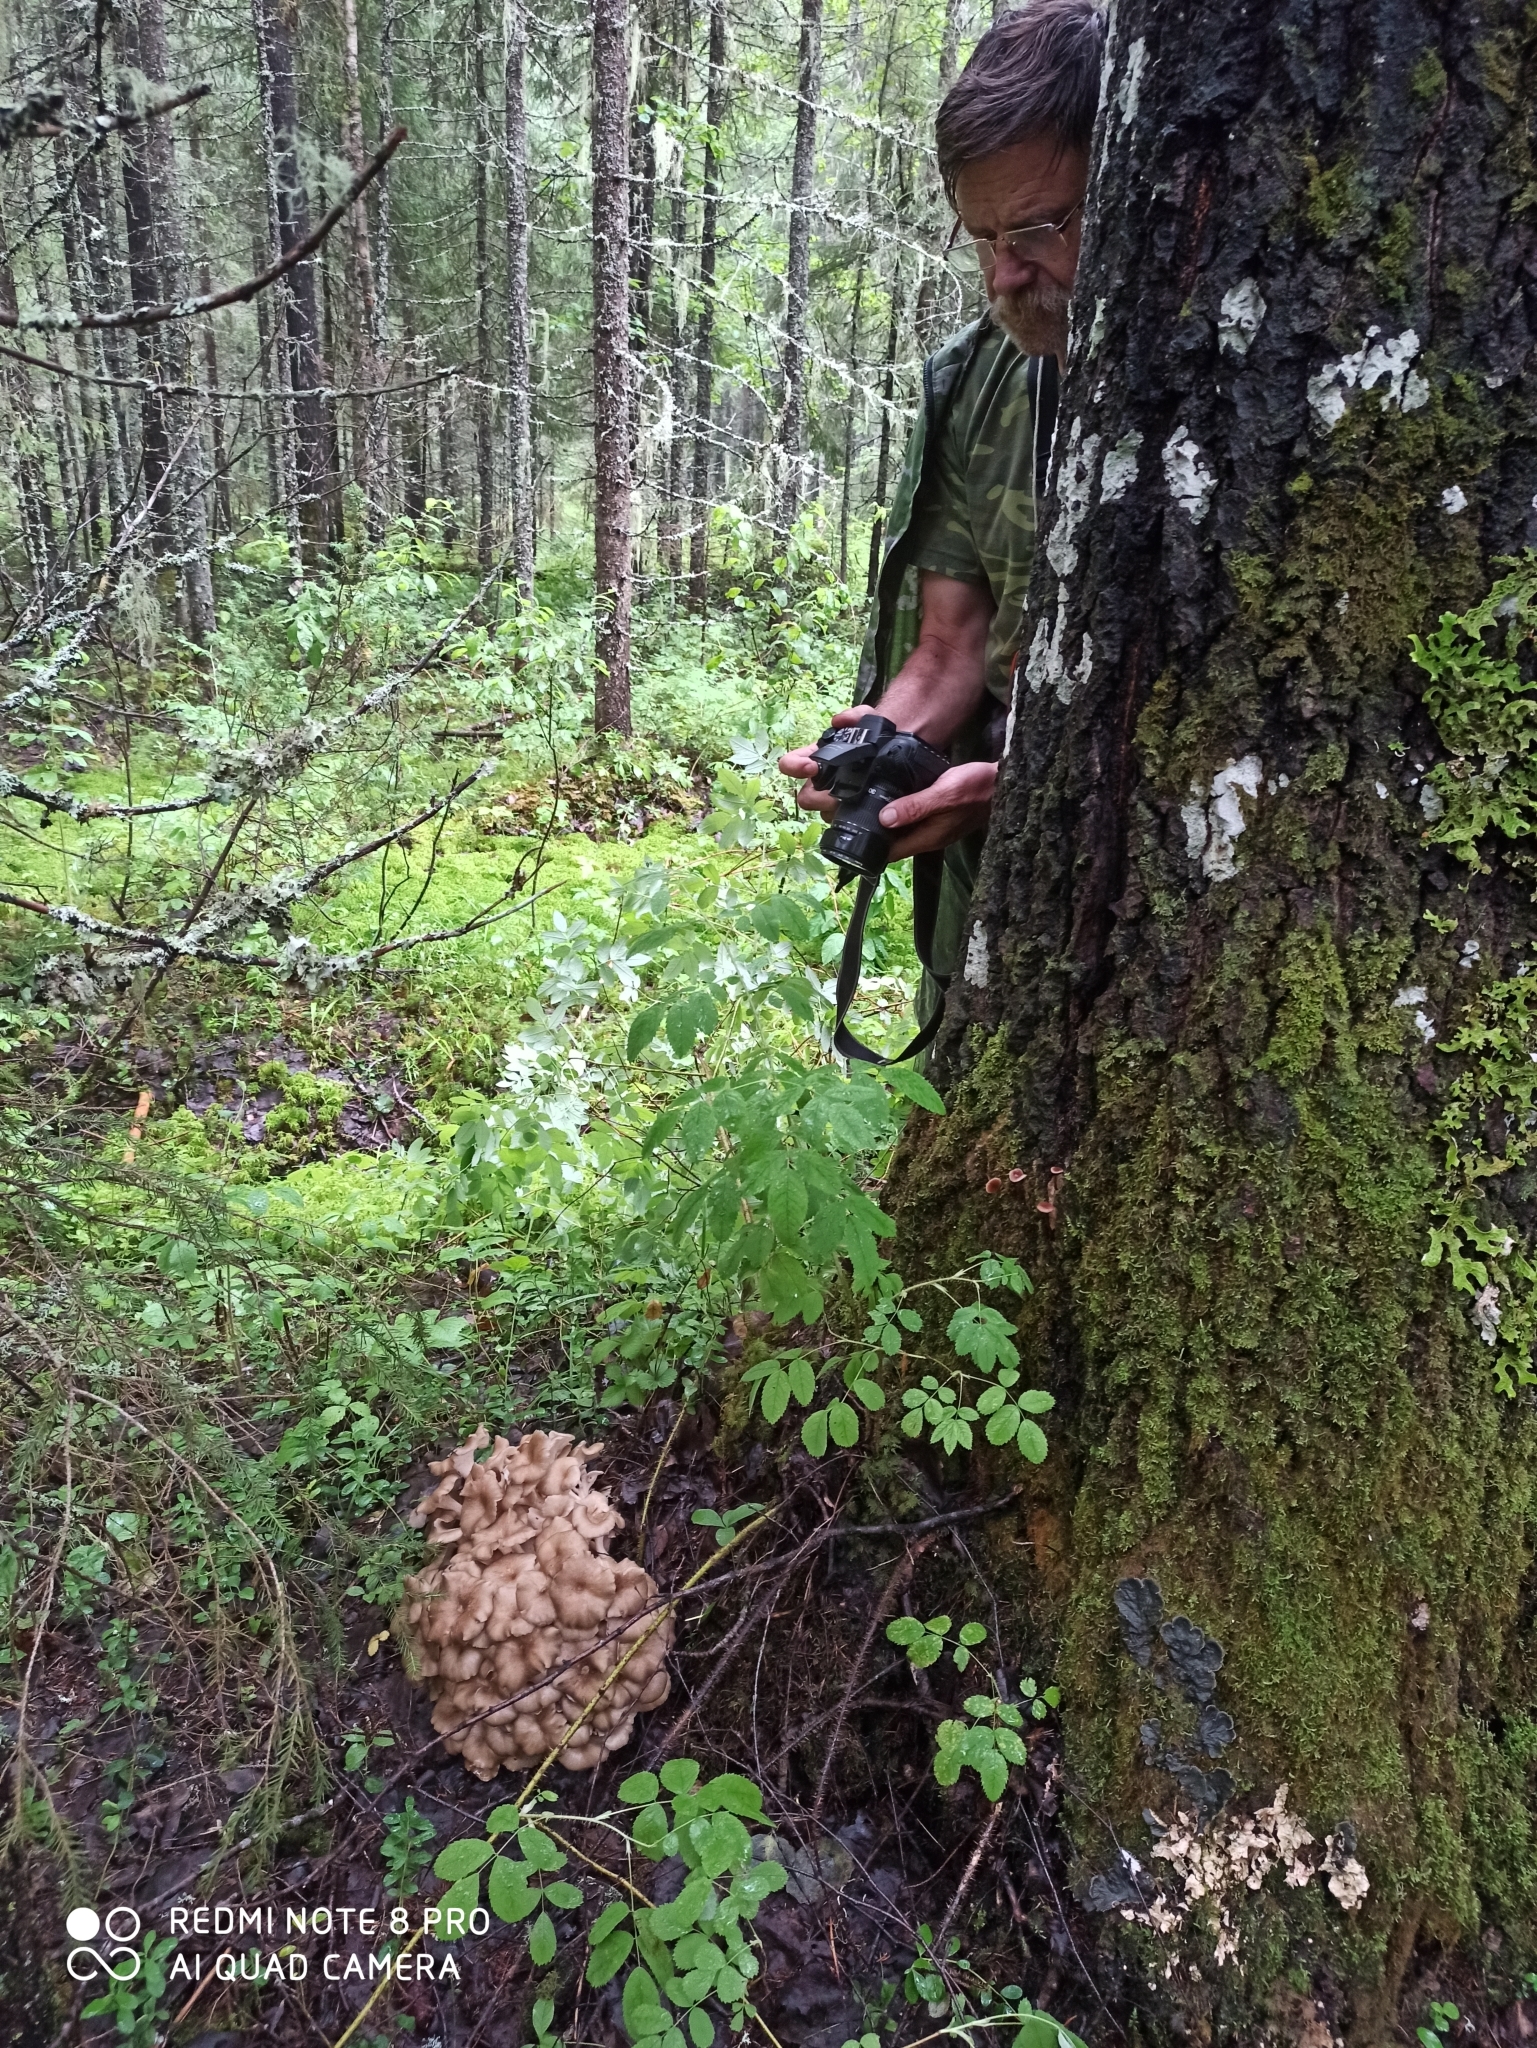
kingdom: Fungi
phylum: Basidiomycota
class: Agaricomycetes
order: Polyporales
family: Polyporaceae
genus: Polyporus
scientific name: Polyporus umbellatus
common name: Umbrella polypore
